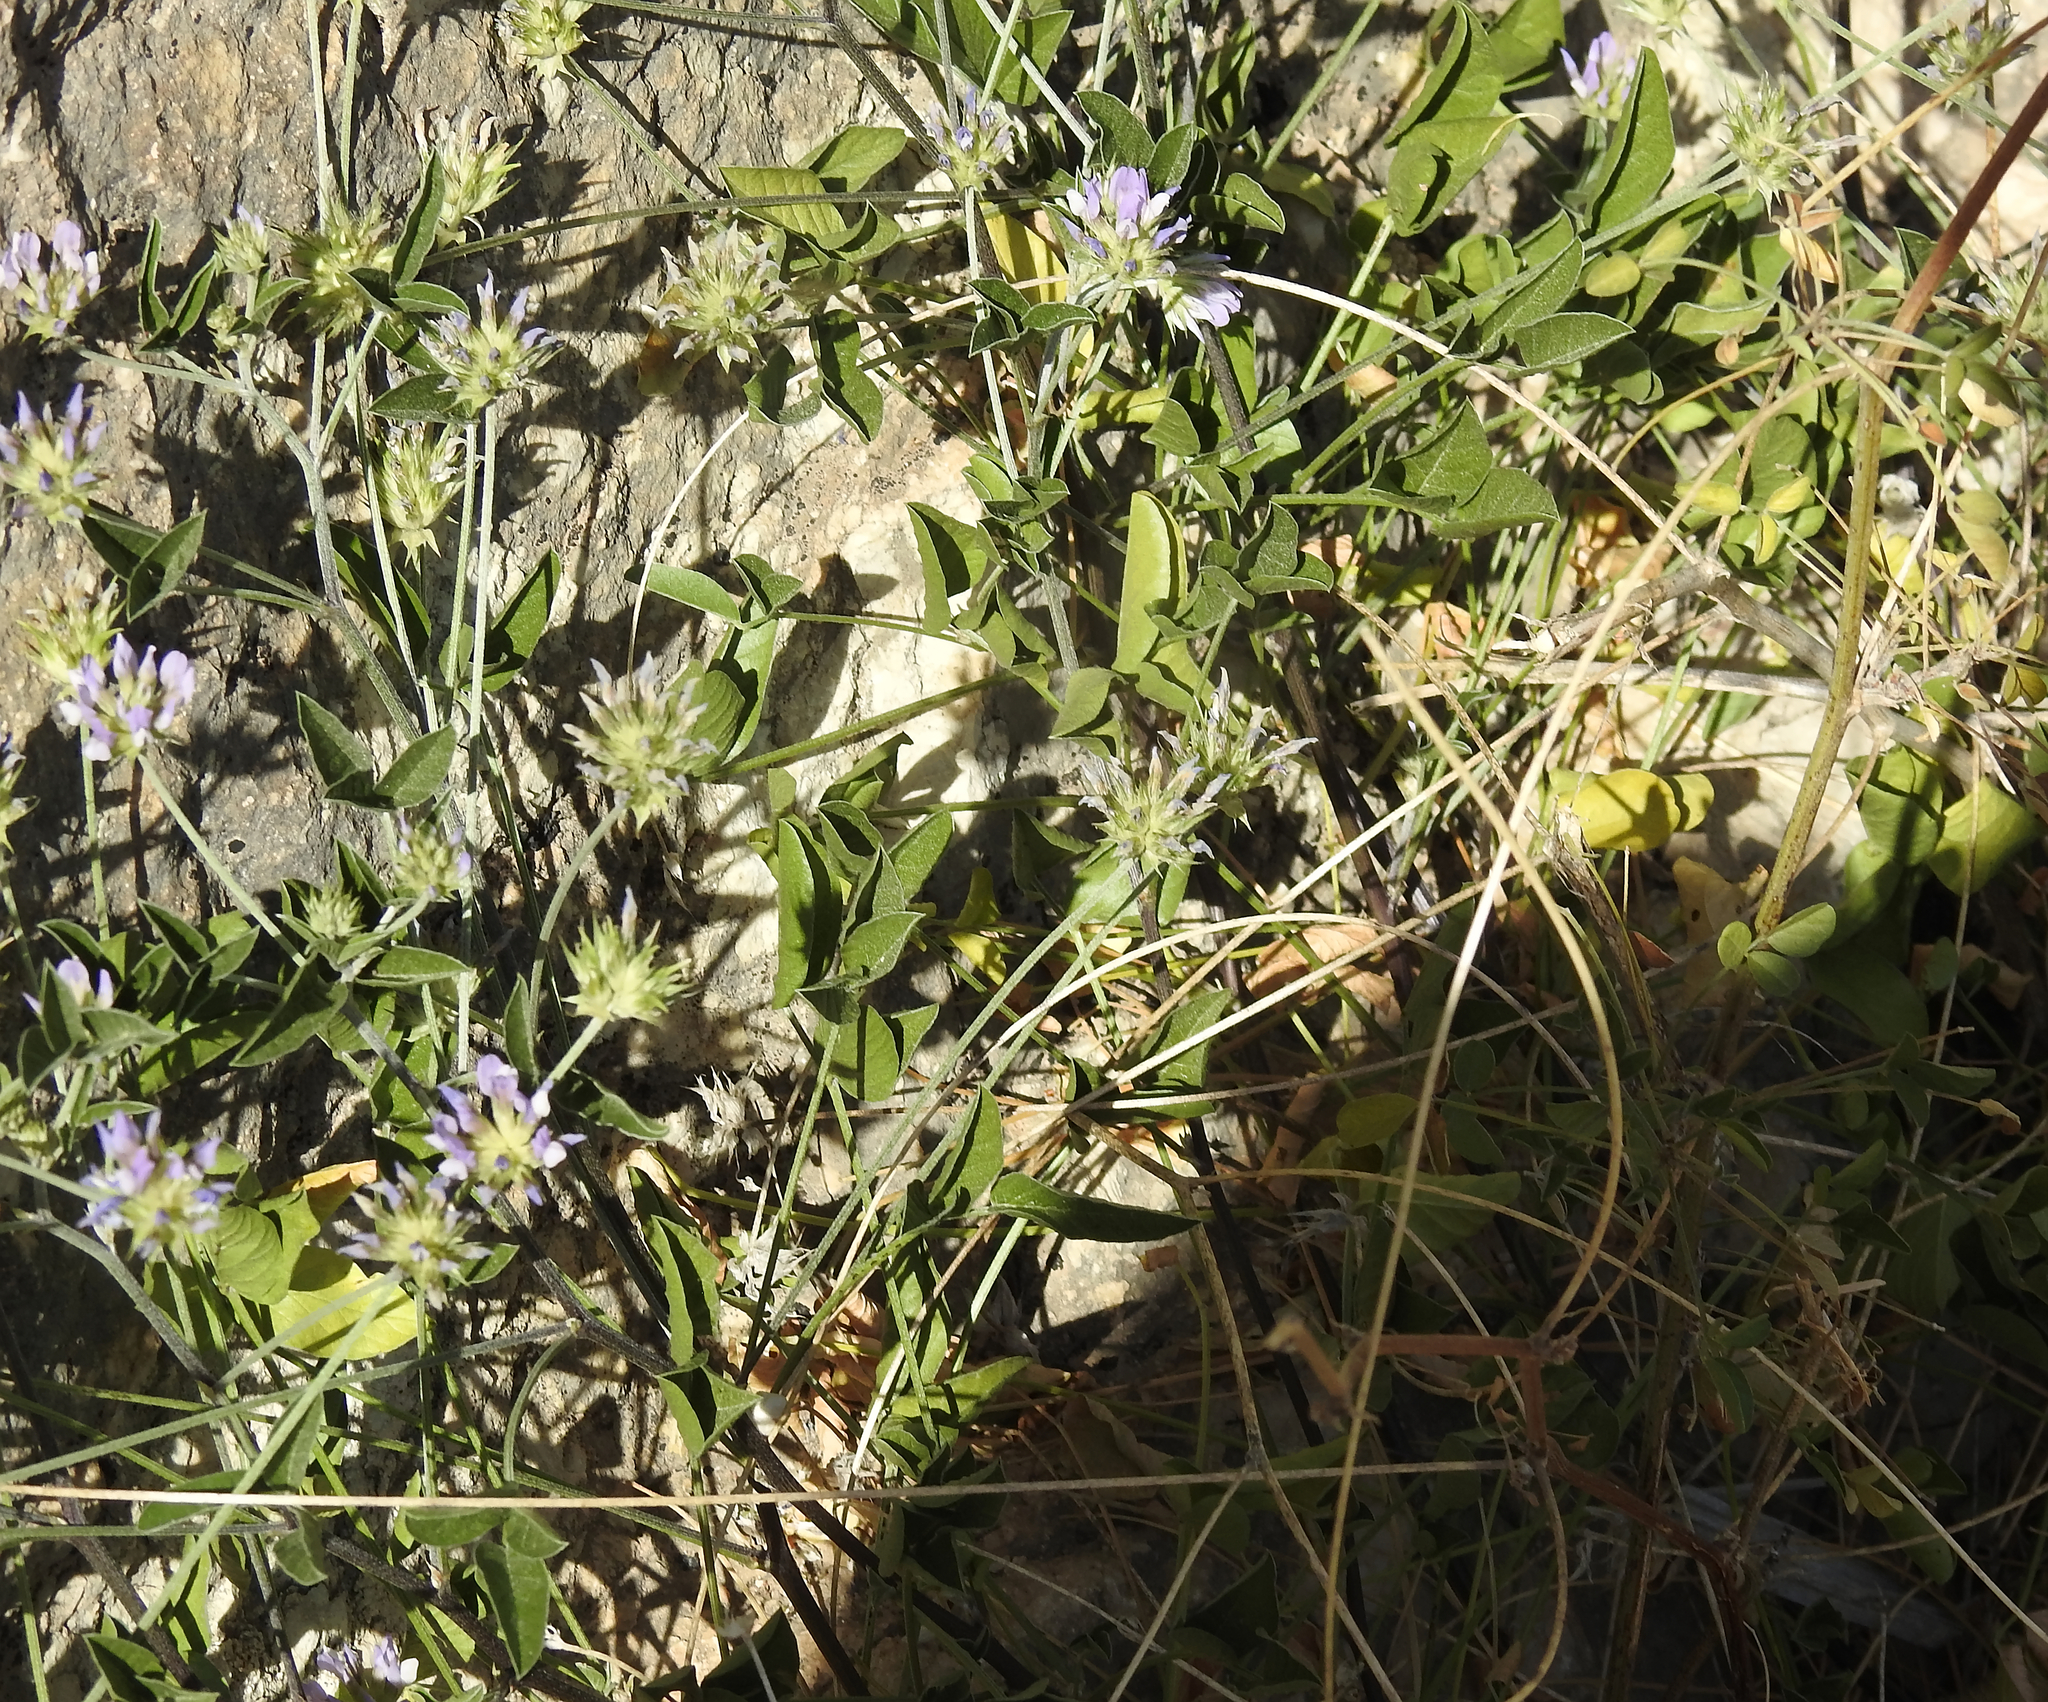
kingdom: Plantae
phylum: Tracheophyta
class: Magnoliopsida
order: Fabales
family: Fabaceae
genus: Bituminaria
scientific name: Bituminaria bituminosa
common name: Arabian pea
